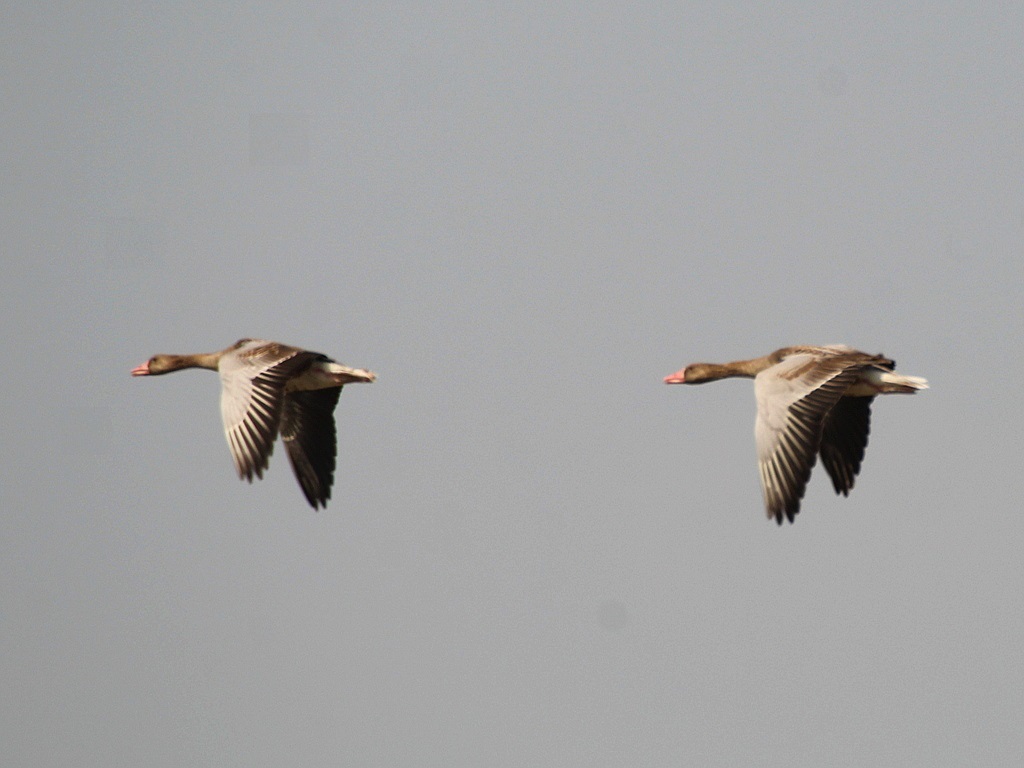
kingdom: Animalia
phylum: Chordata
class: Aves
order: Anseriformes
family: Anatidae
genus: Anser
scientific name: Anser anser
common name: Greylag goose
